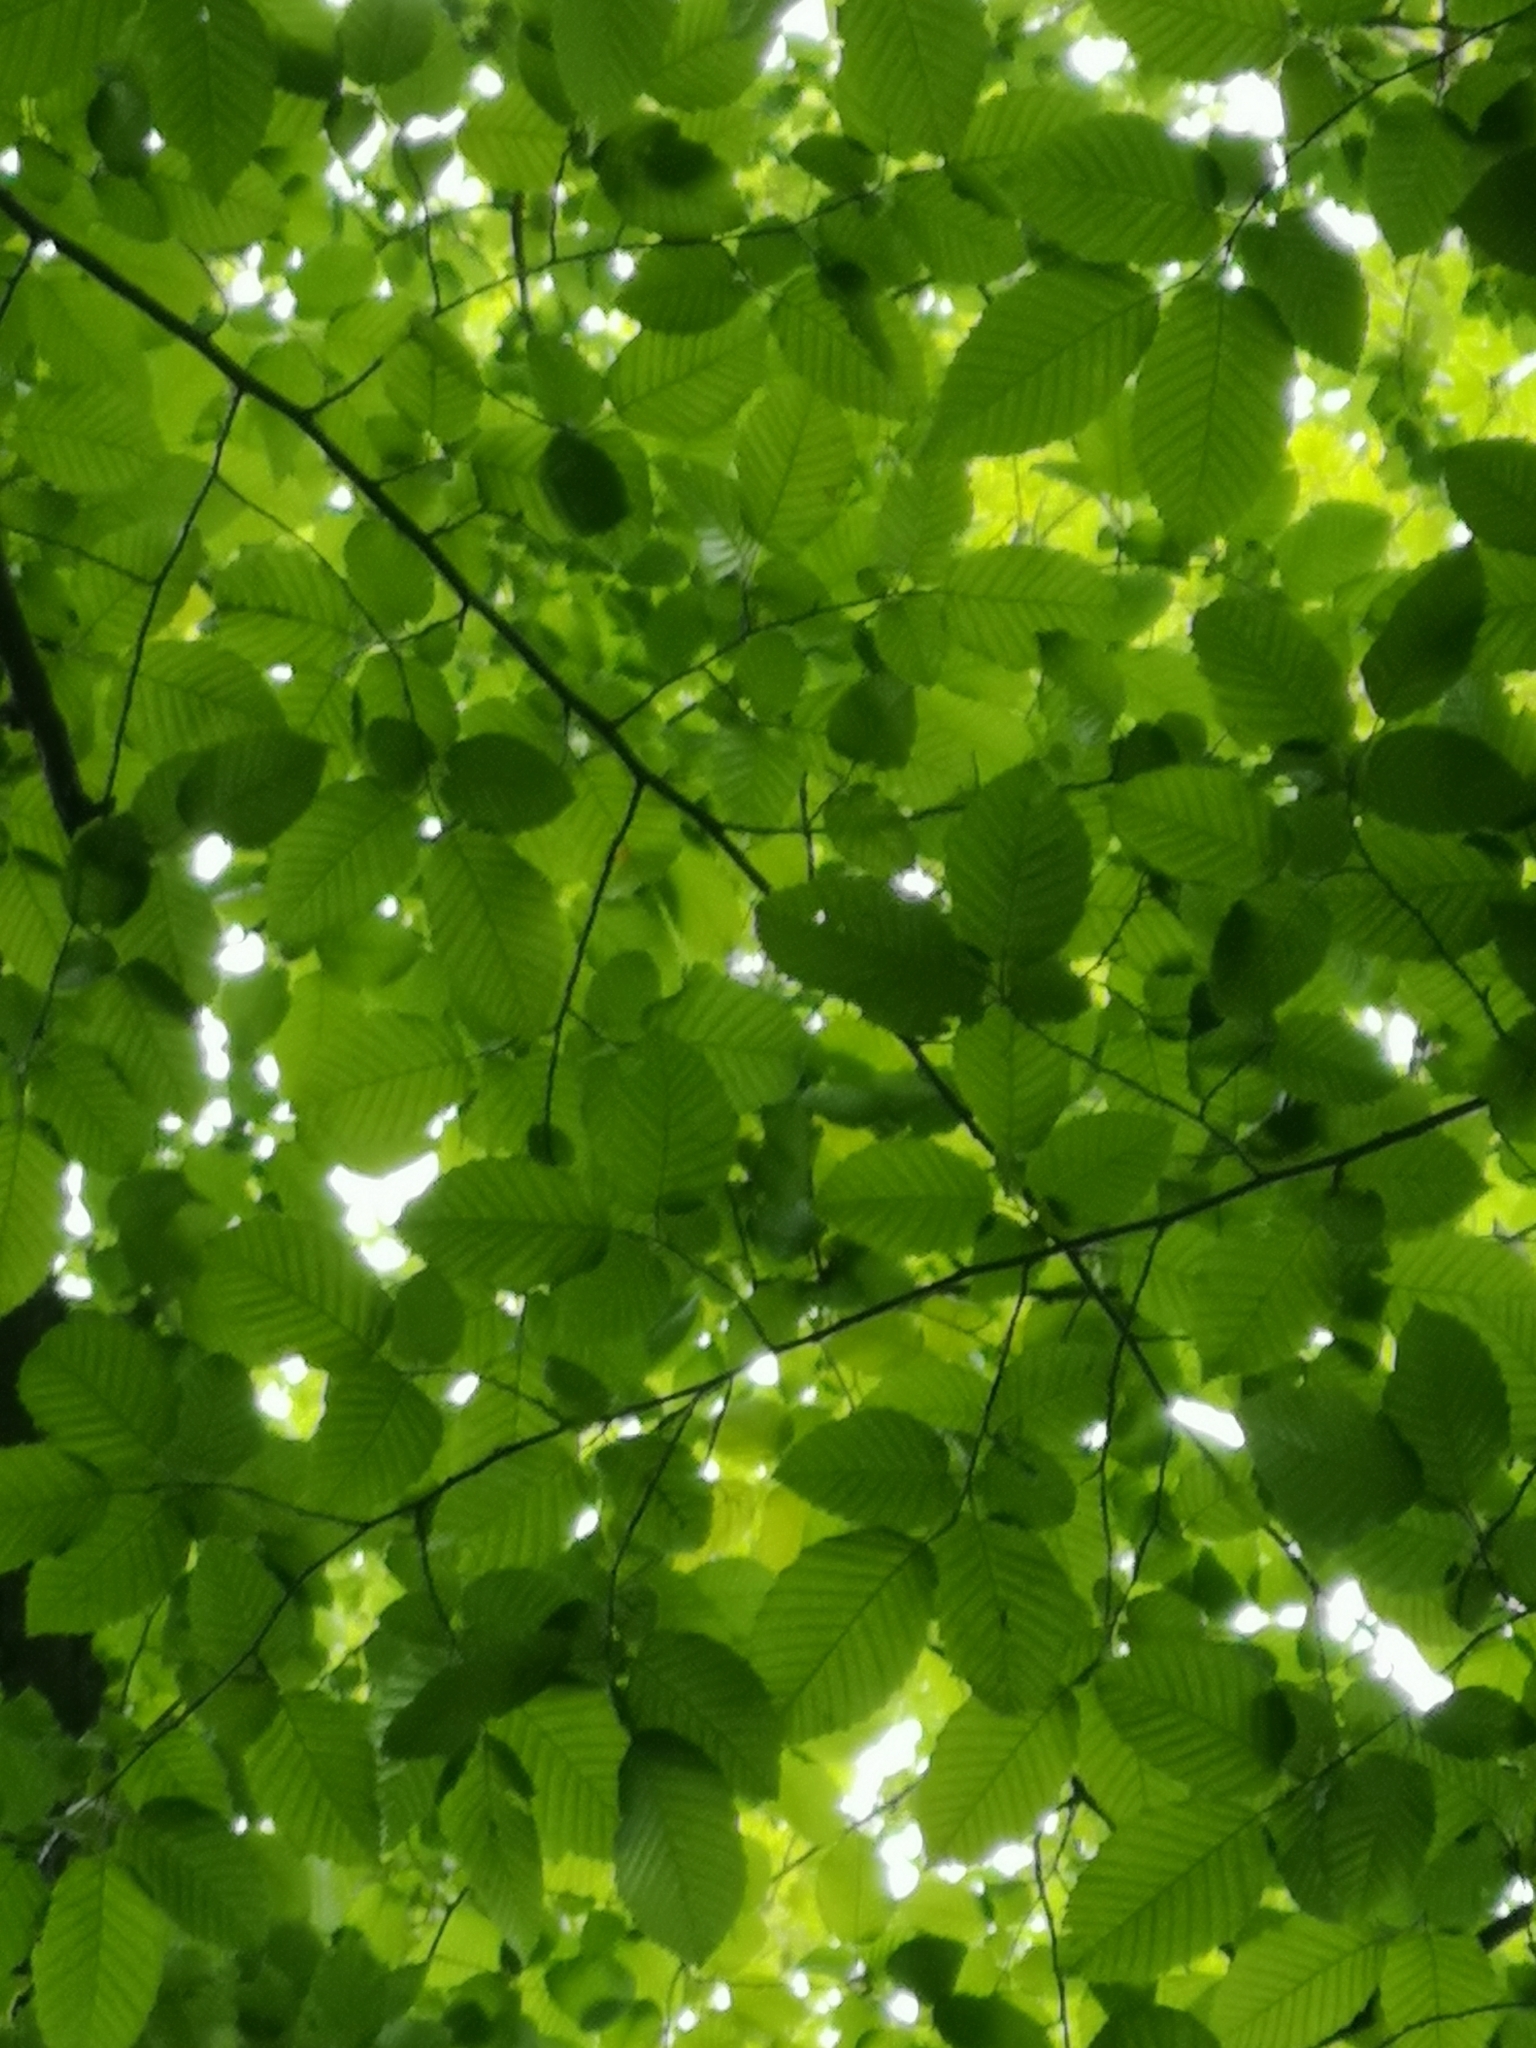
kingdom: Plantae
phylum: Tracheophyta
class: Magnoliopsida
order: Fagales
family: Betulaceae
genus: Carpinus
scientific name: Carpinus betulus
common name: Hornbeam
